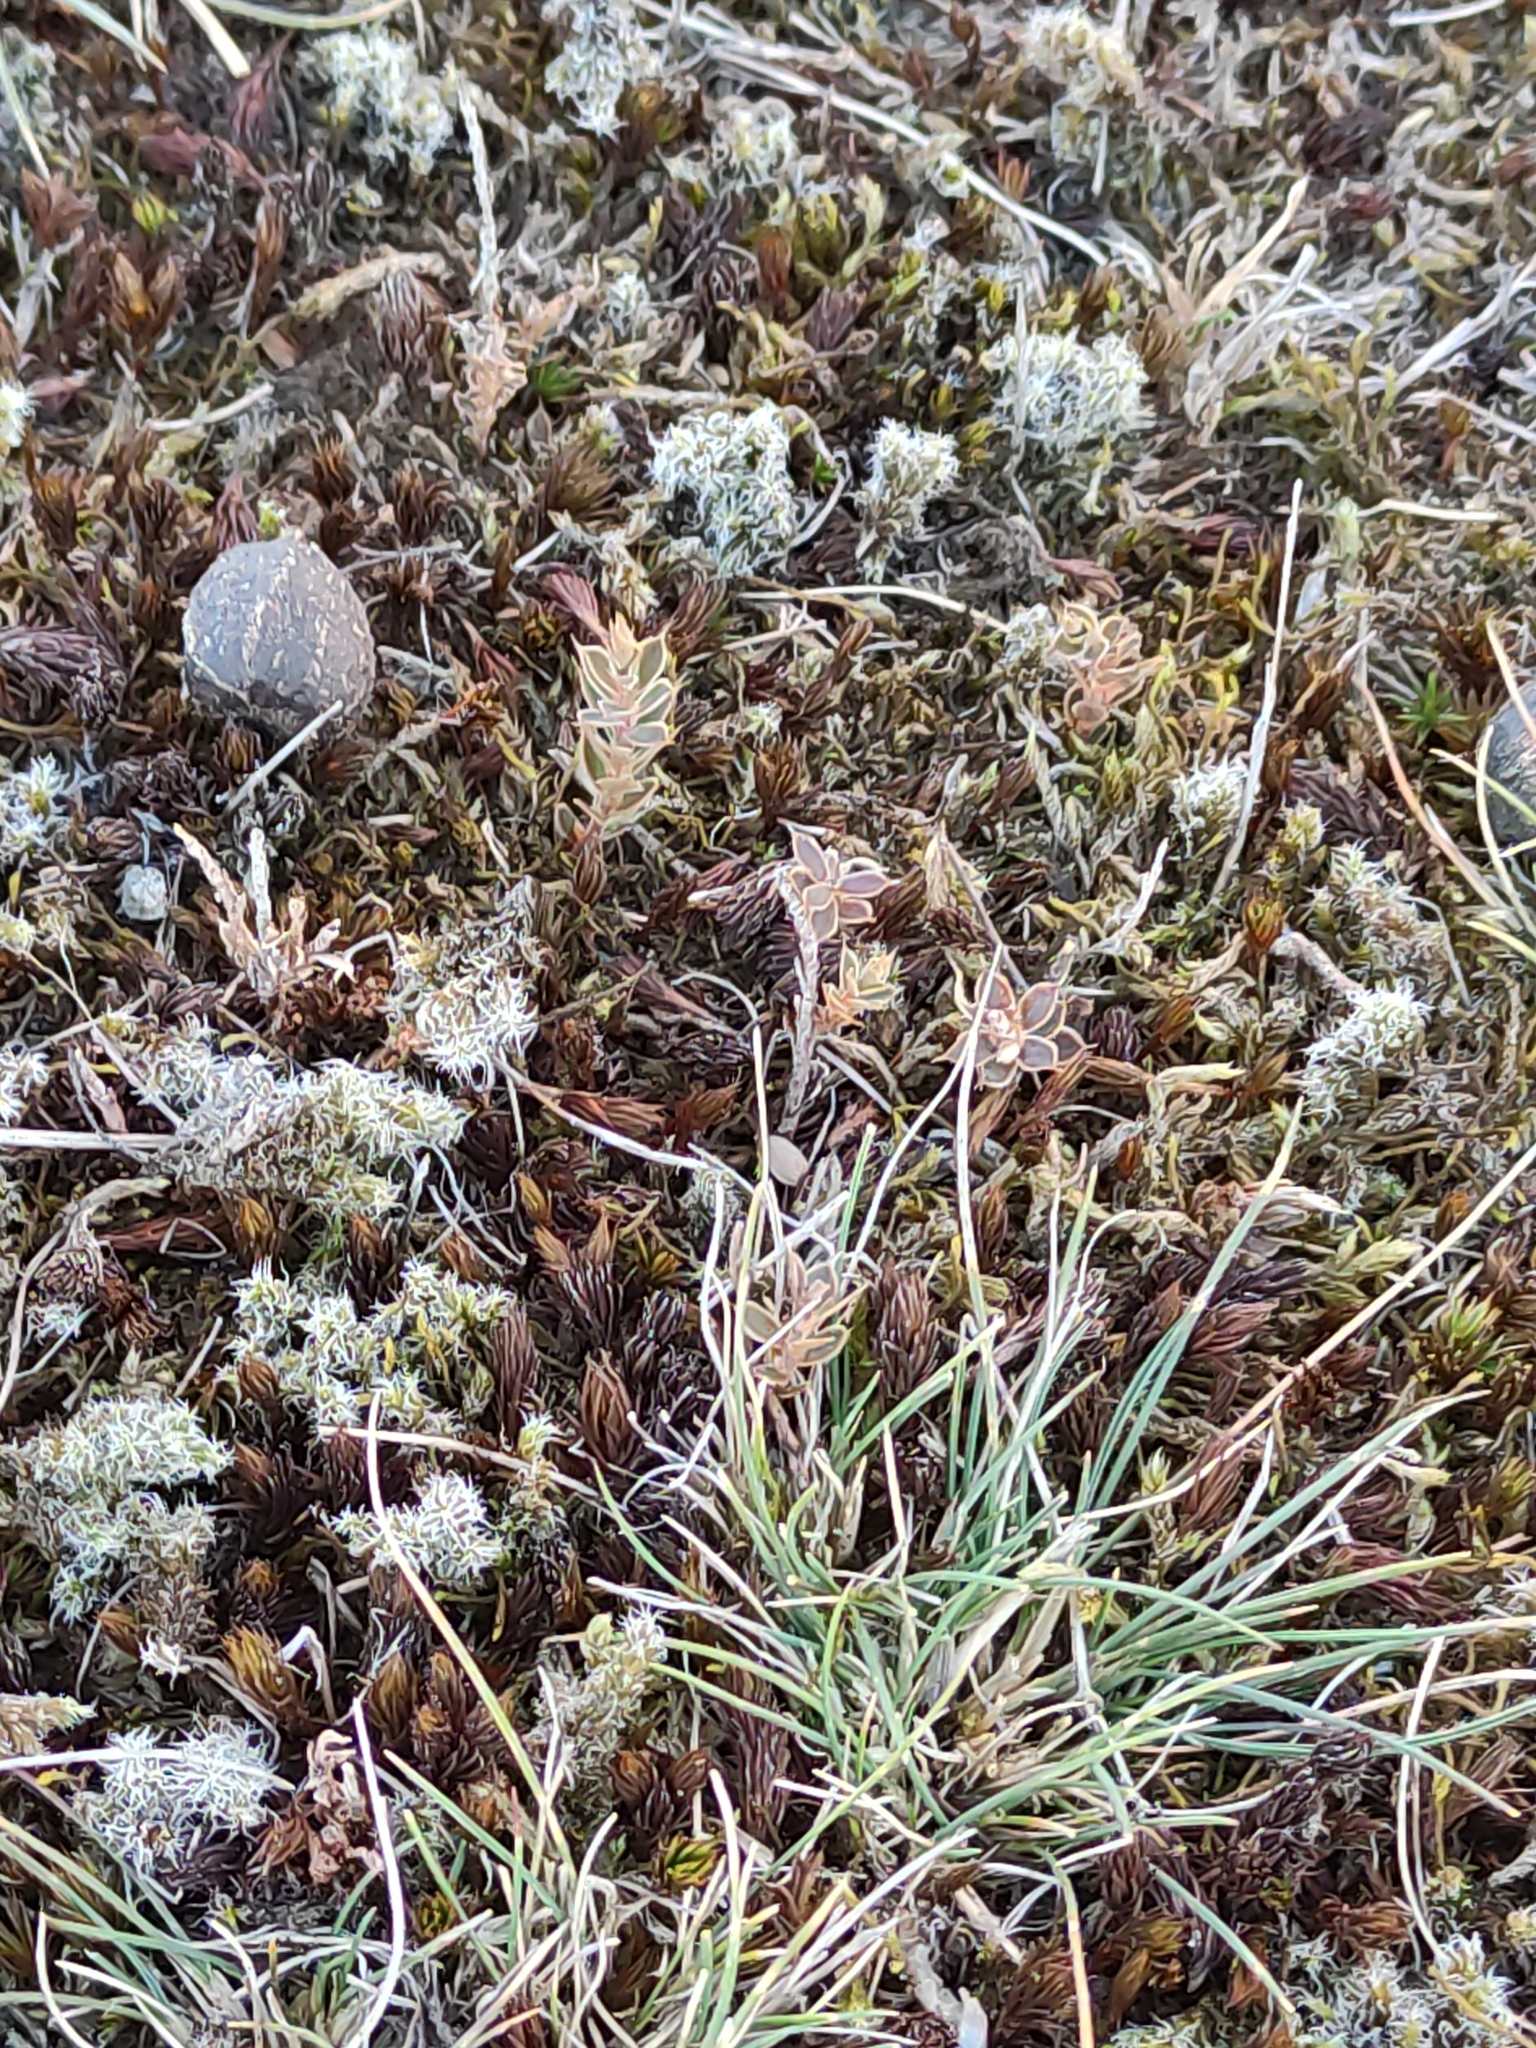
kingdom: Plantae
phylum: Tracheophyta
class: Magnoliopsida
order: Ericales
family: Ericaceae
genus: Styphelia
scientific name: Styphelia nesophila
